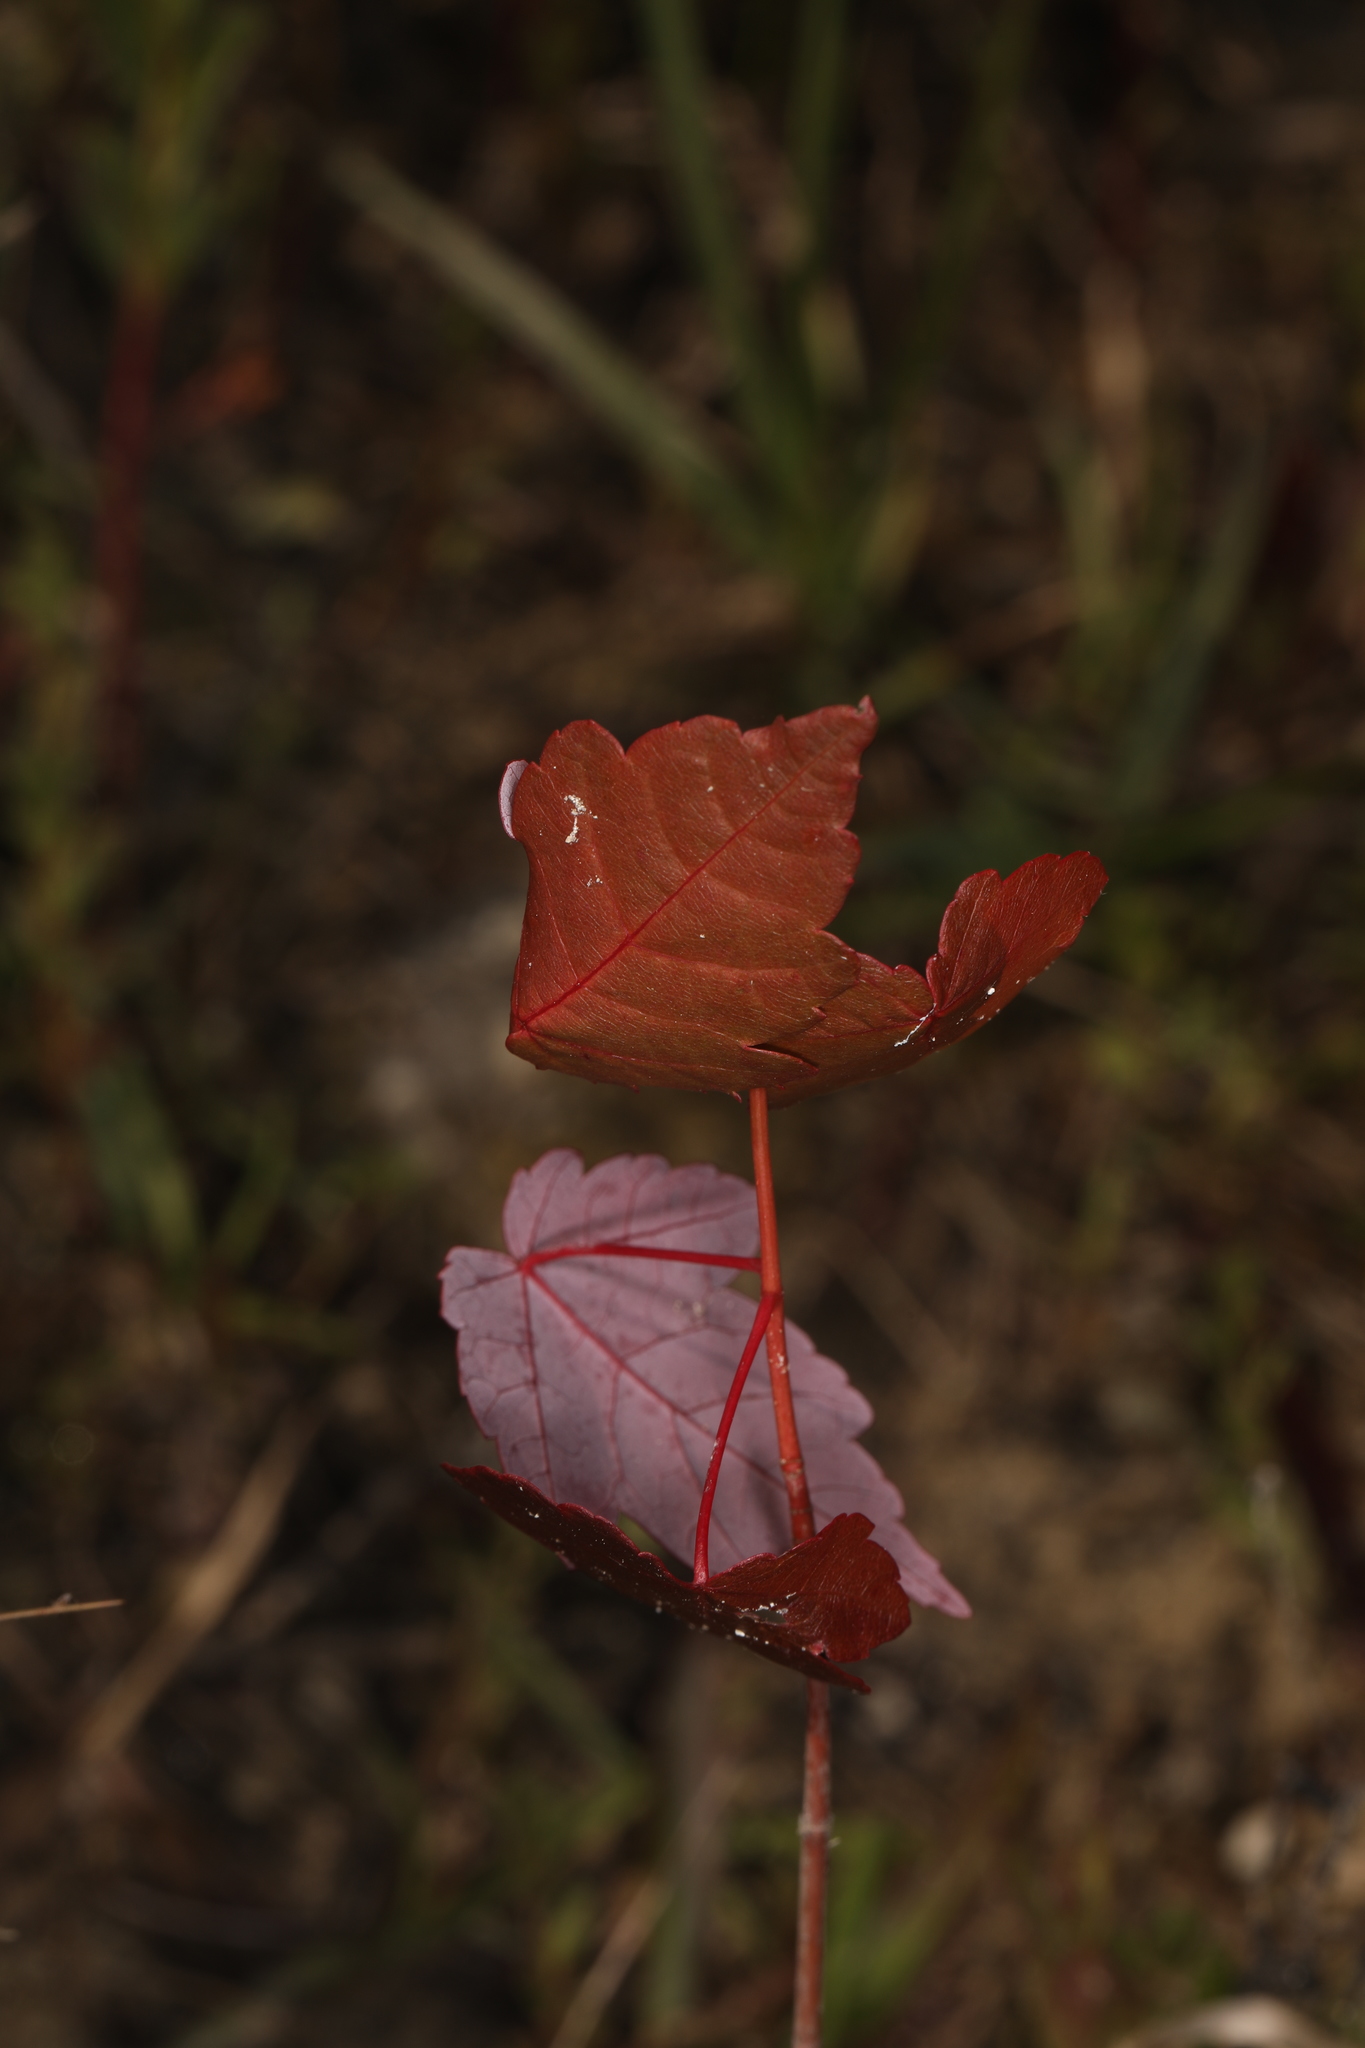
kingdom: Plantae
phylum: Tracheophyta
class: Magnoliopsida
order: Sapindales
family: Sapindaceae
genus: Acer
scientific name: Acer rubrum
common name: Red maple
